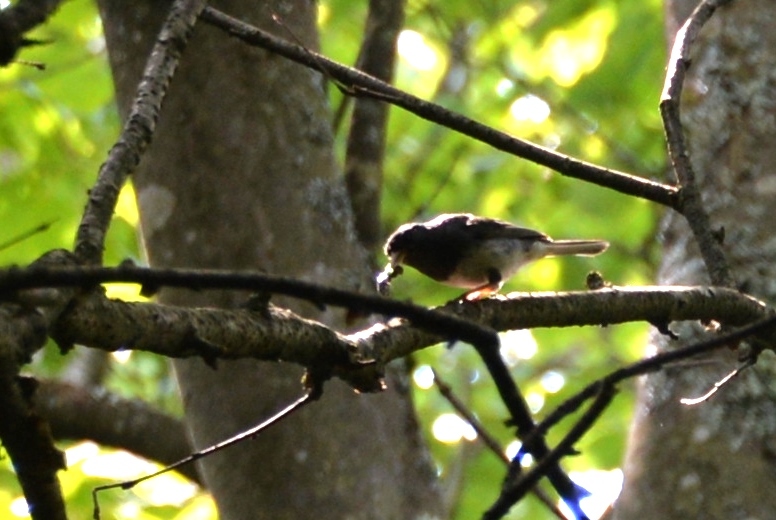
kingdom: Animalia
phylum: Chordata
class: Aves
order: Passeriformes
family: Passerellidae
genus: Junco
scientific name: Junco hyemalis
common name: Dark-eyed junco
